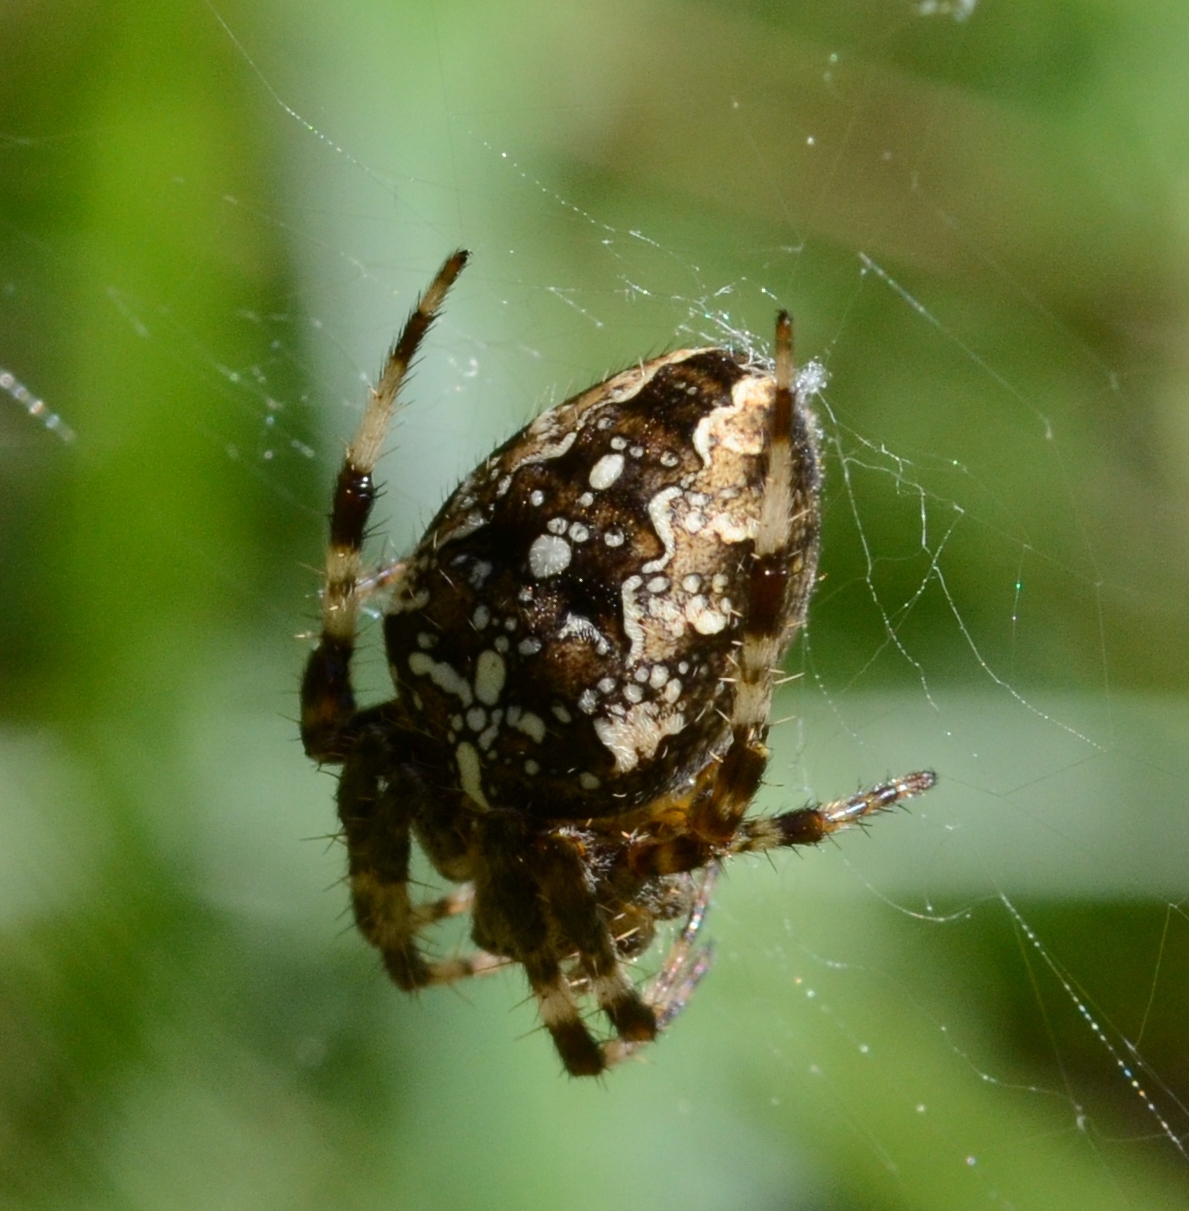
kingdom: Animalia
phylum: Arthropoda
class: Arachnida
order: Araneae
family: Araneidae
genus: Araneus
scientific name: Araneus diadematus
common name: Cross orbweaver
